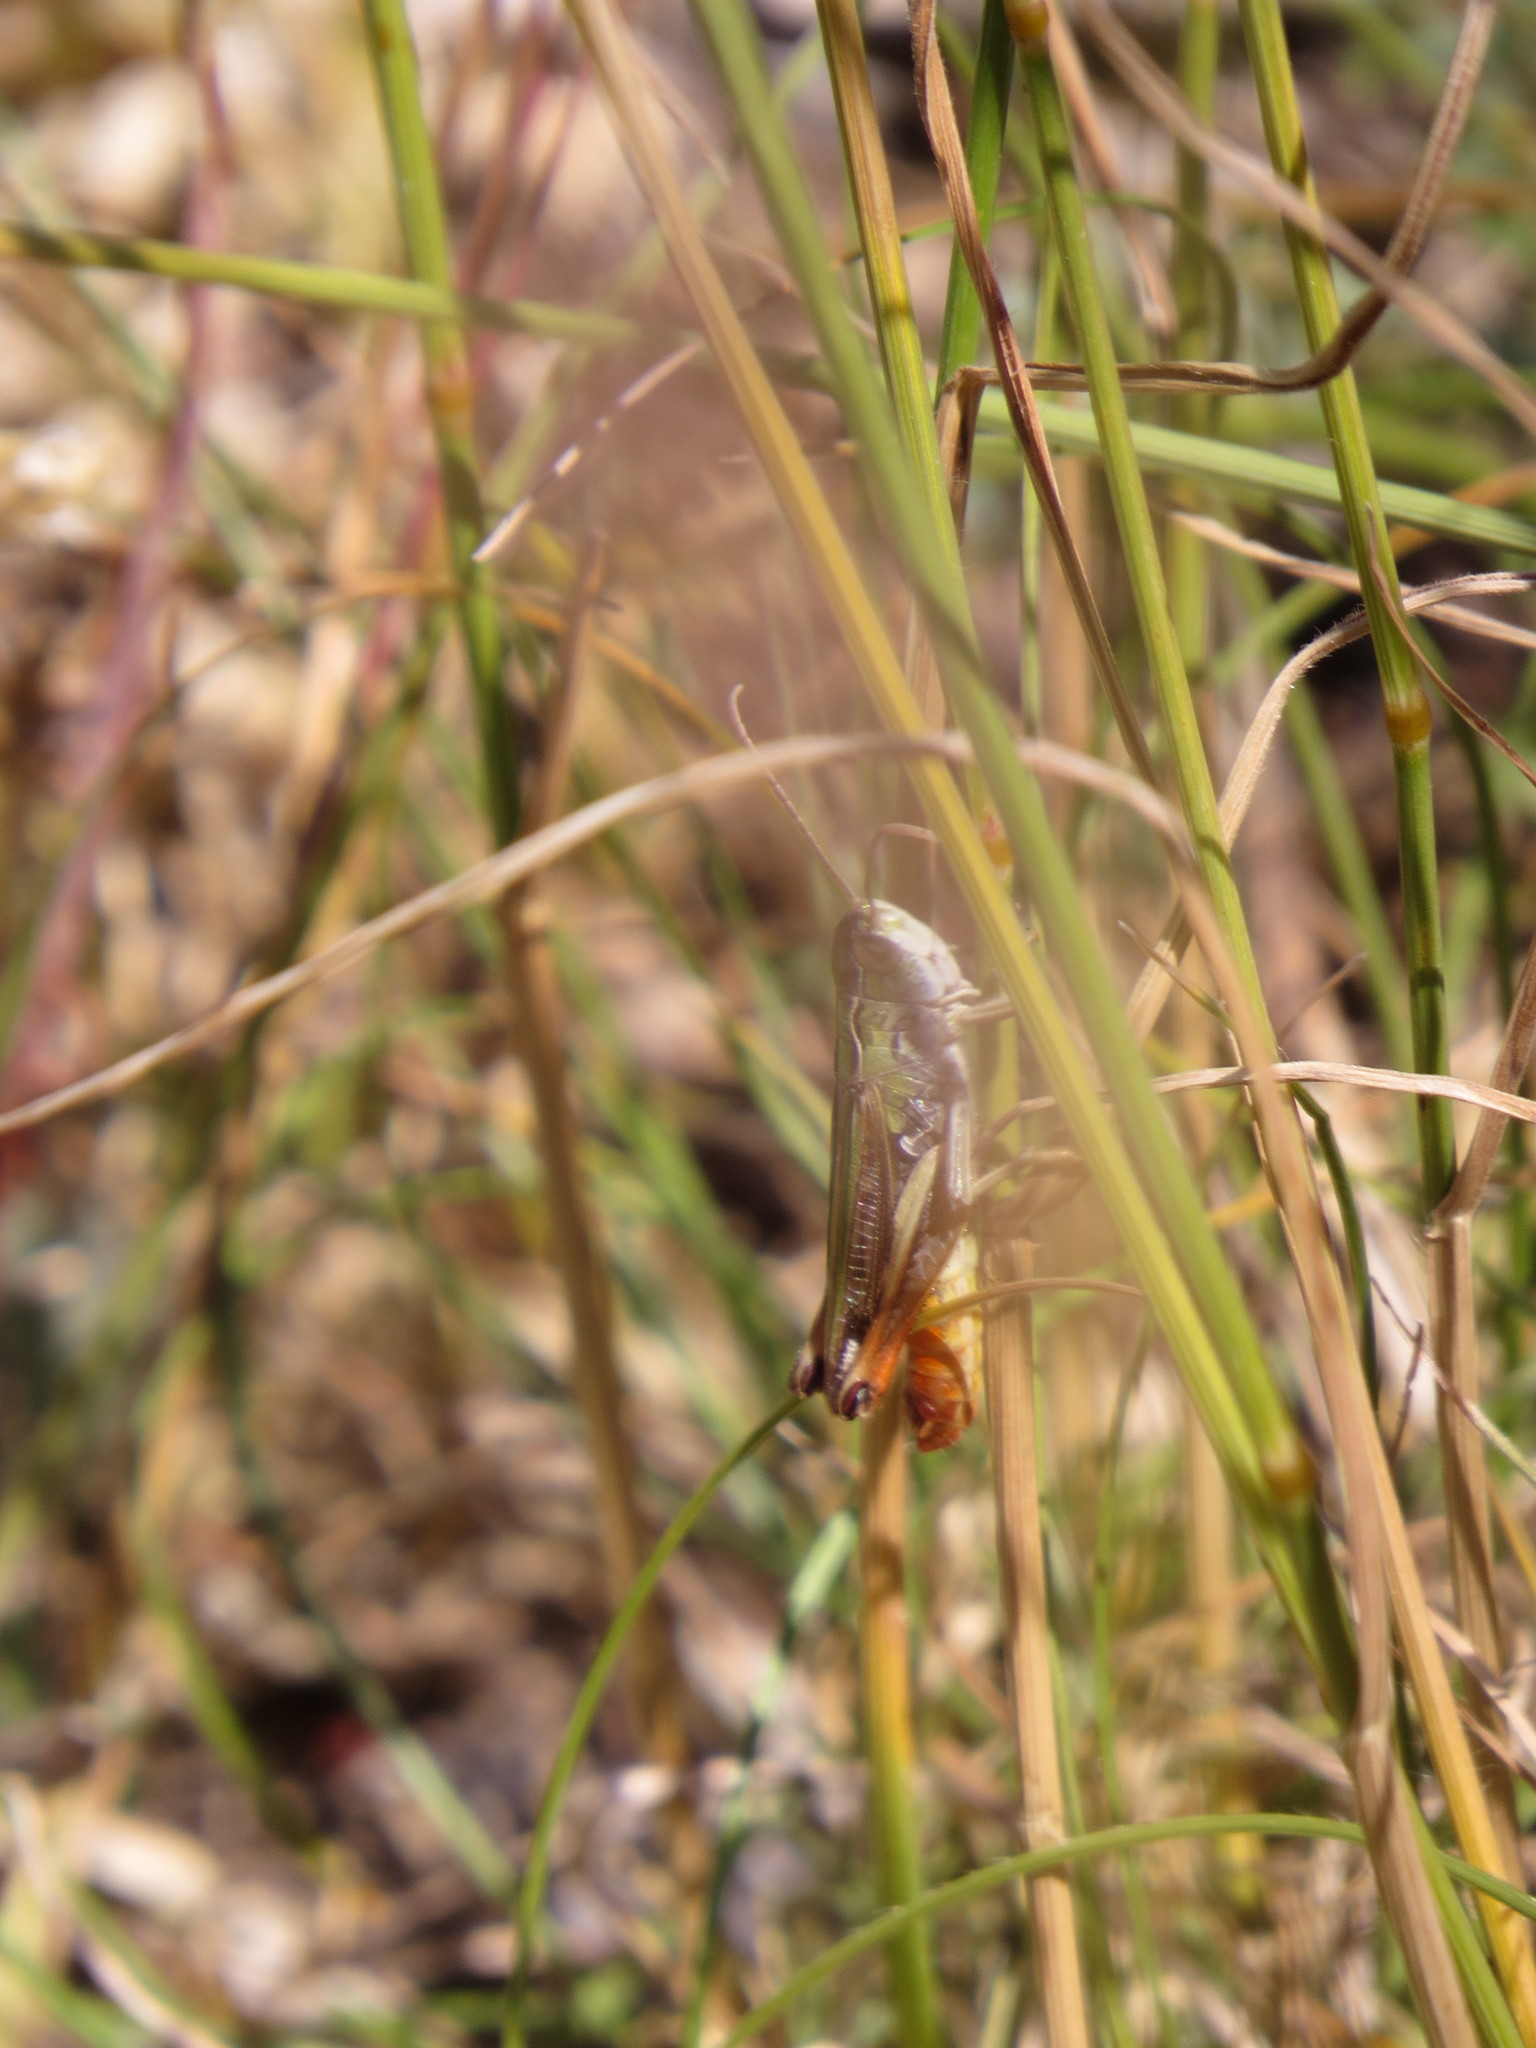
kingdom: Animalia
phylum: Arthropoda
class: Insecta
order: Orthoptera
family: Acrididae
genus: Stenobothrus
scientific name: Stenobothrus nigromaculatus
